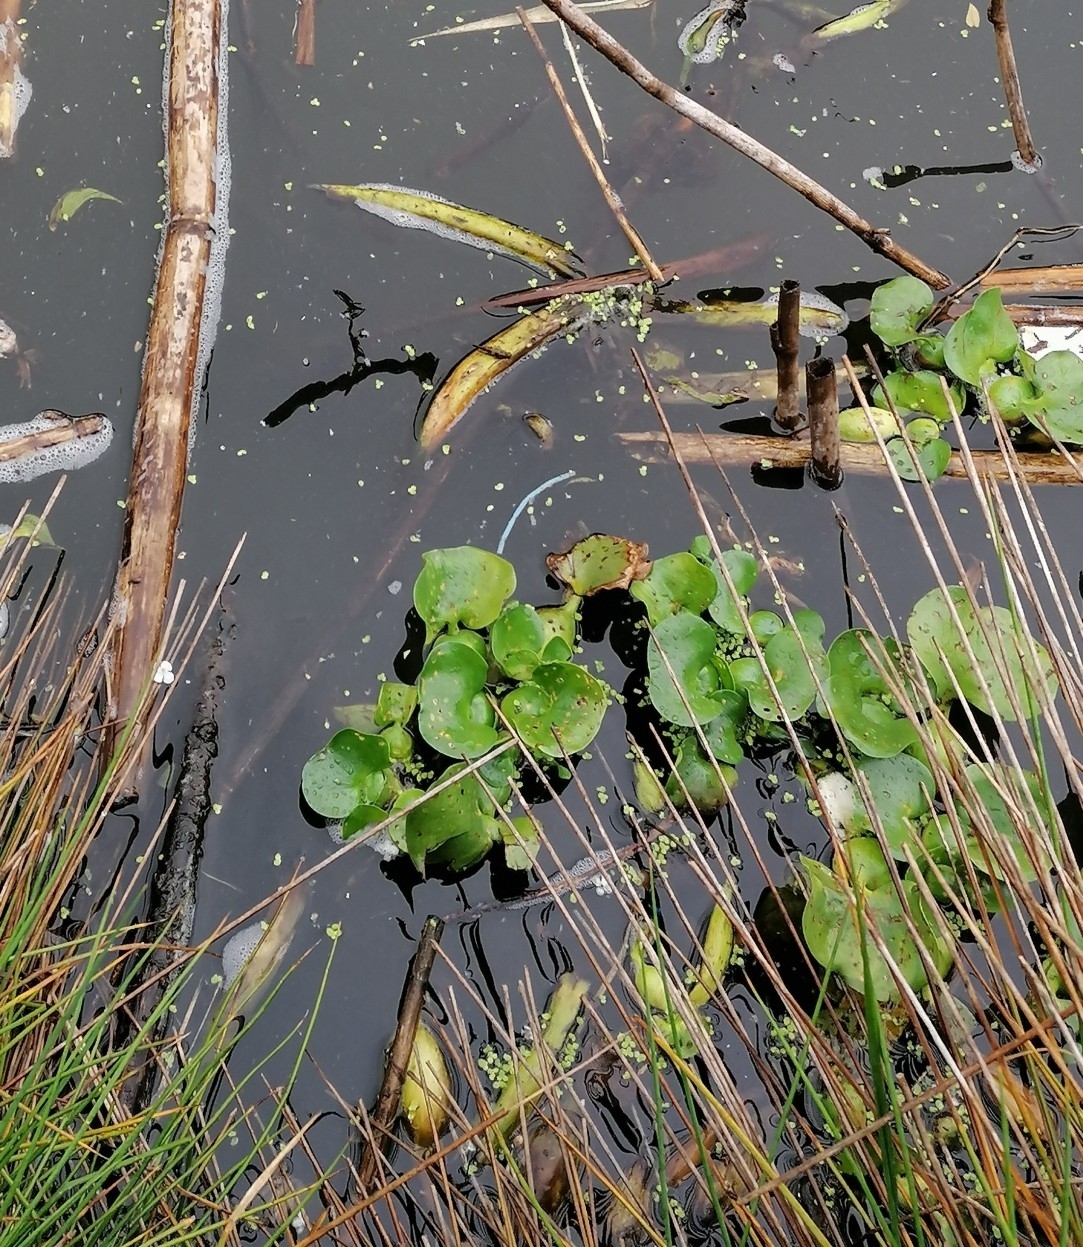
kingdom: Plantae
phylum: Tracheophyta
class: Liliopsida
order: Commelinales
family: Pontederiaceae
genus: Pontederia
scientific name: Pontederia crassipes
